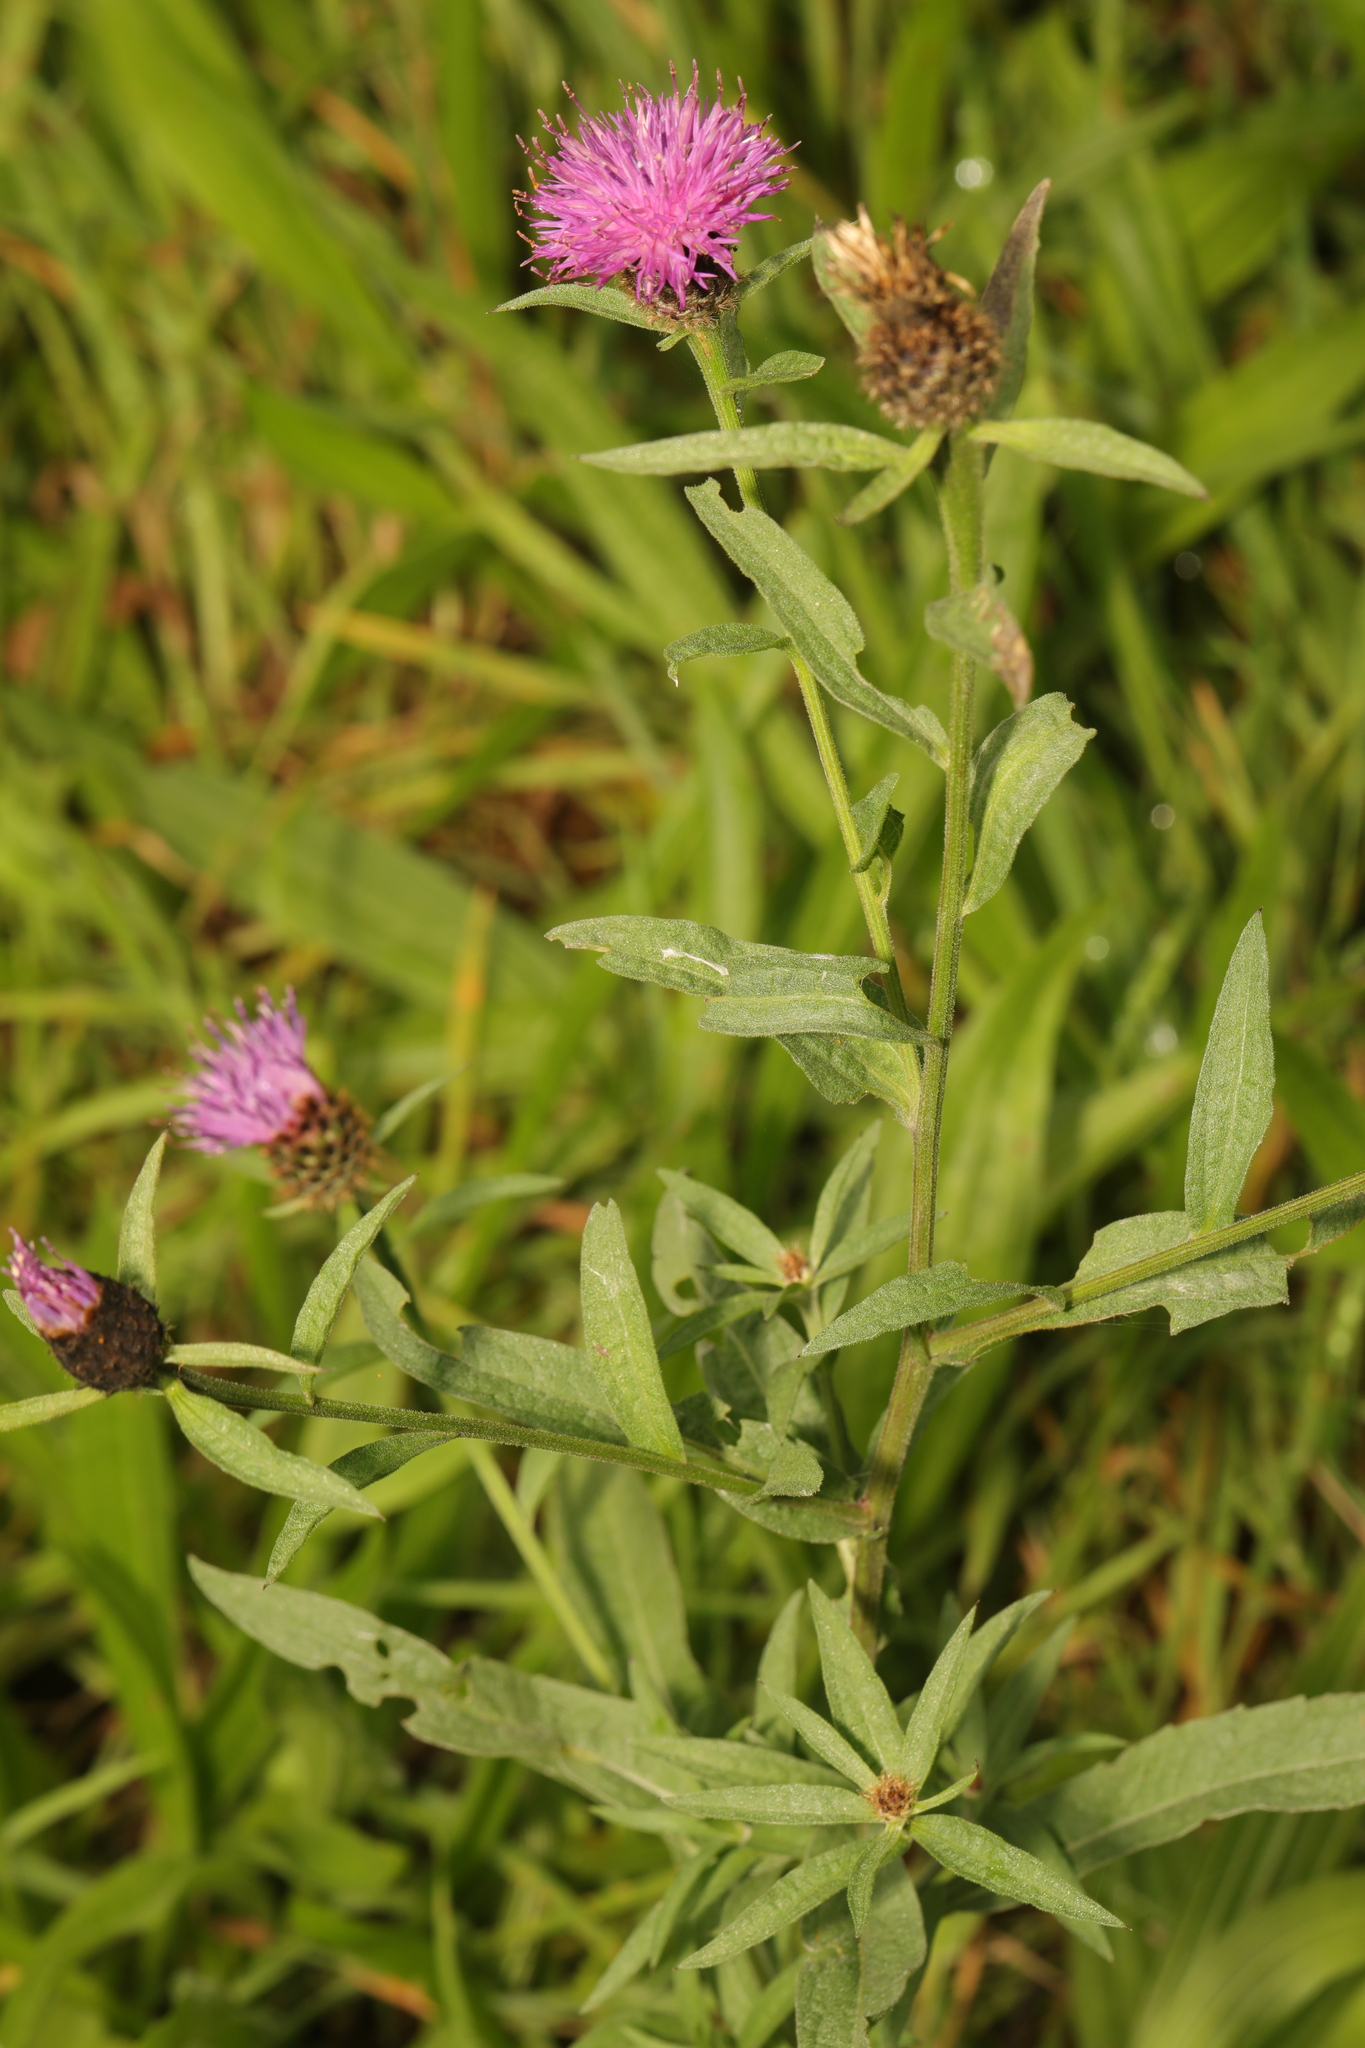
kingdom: Plantae
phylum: Tracheophyta
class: Magnoliopsida
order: Asterales
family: Asteraceae
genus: Centaurea
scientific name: Centaurea nigra
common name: Lesser knapweed
